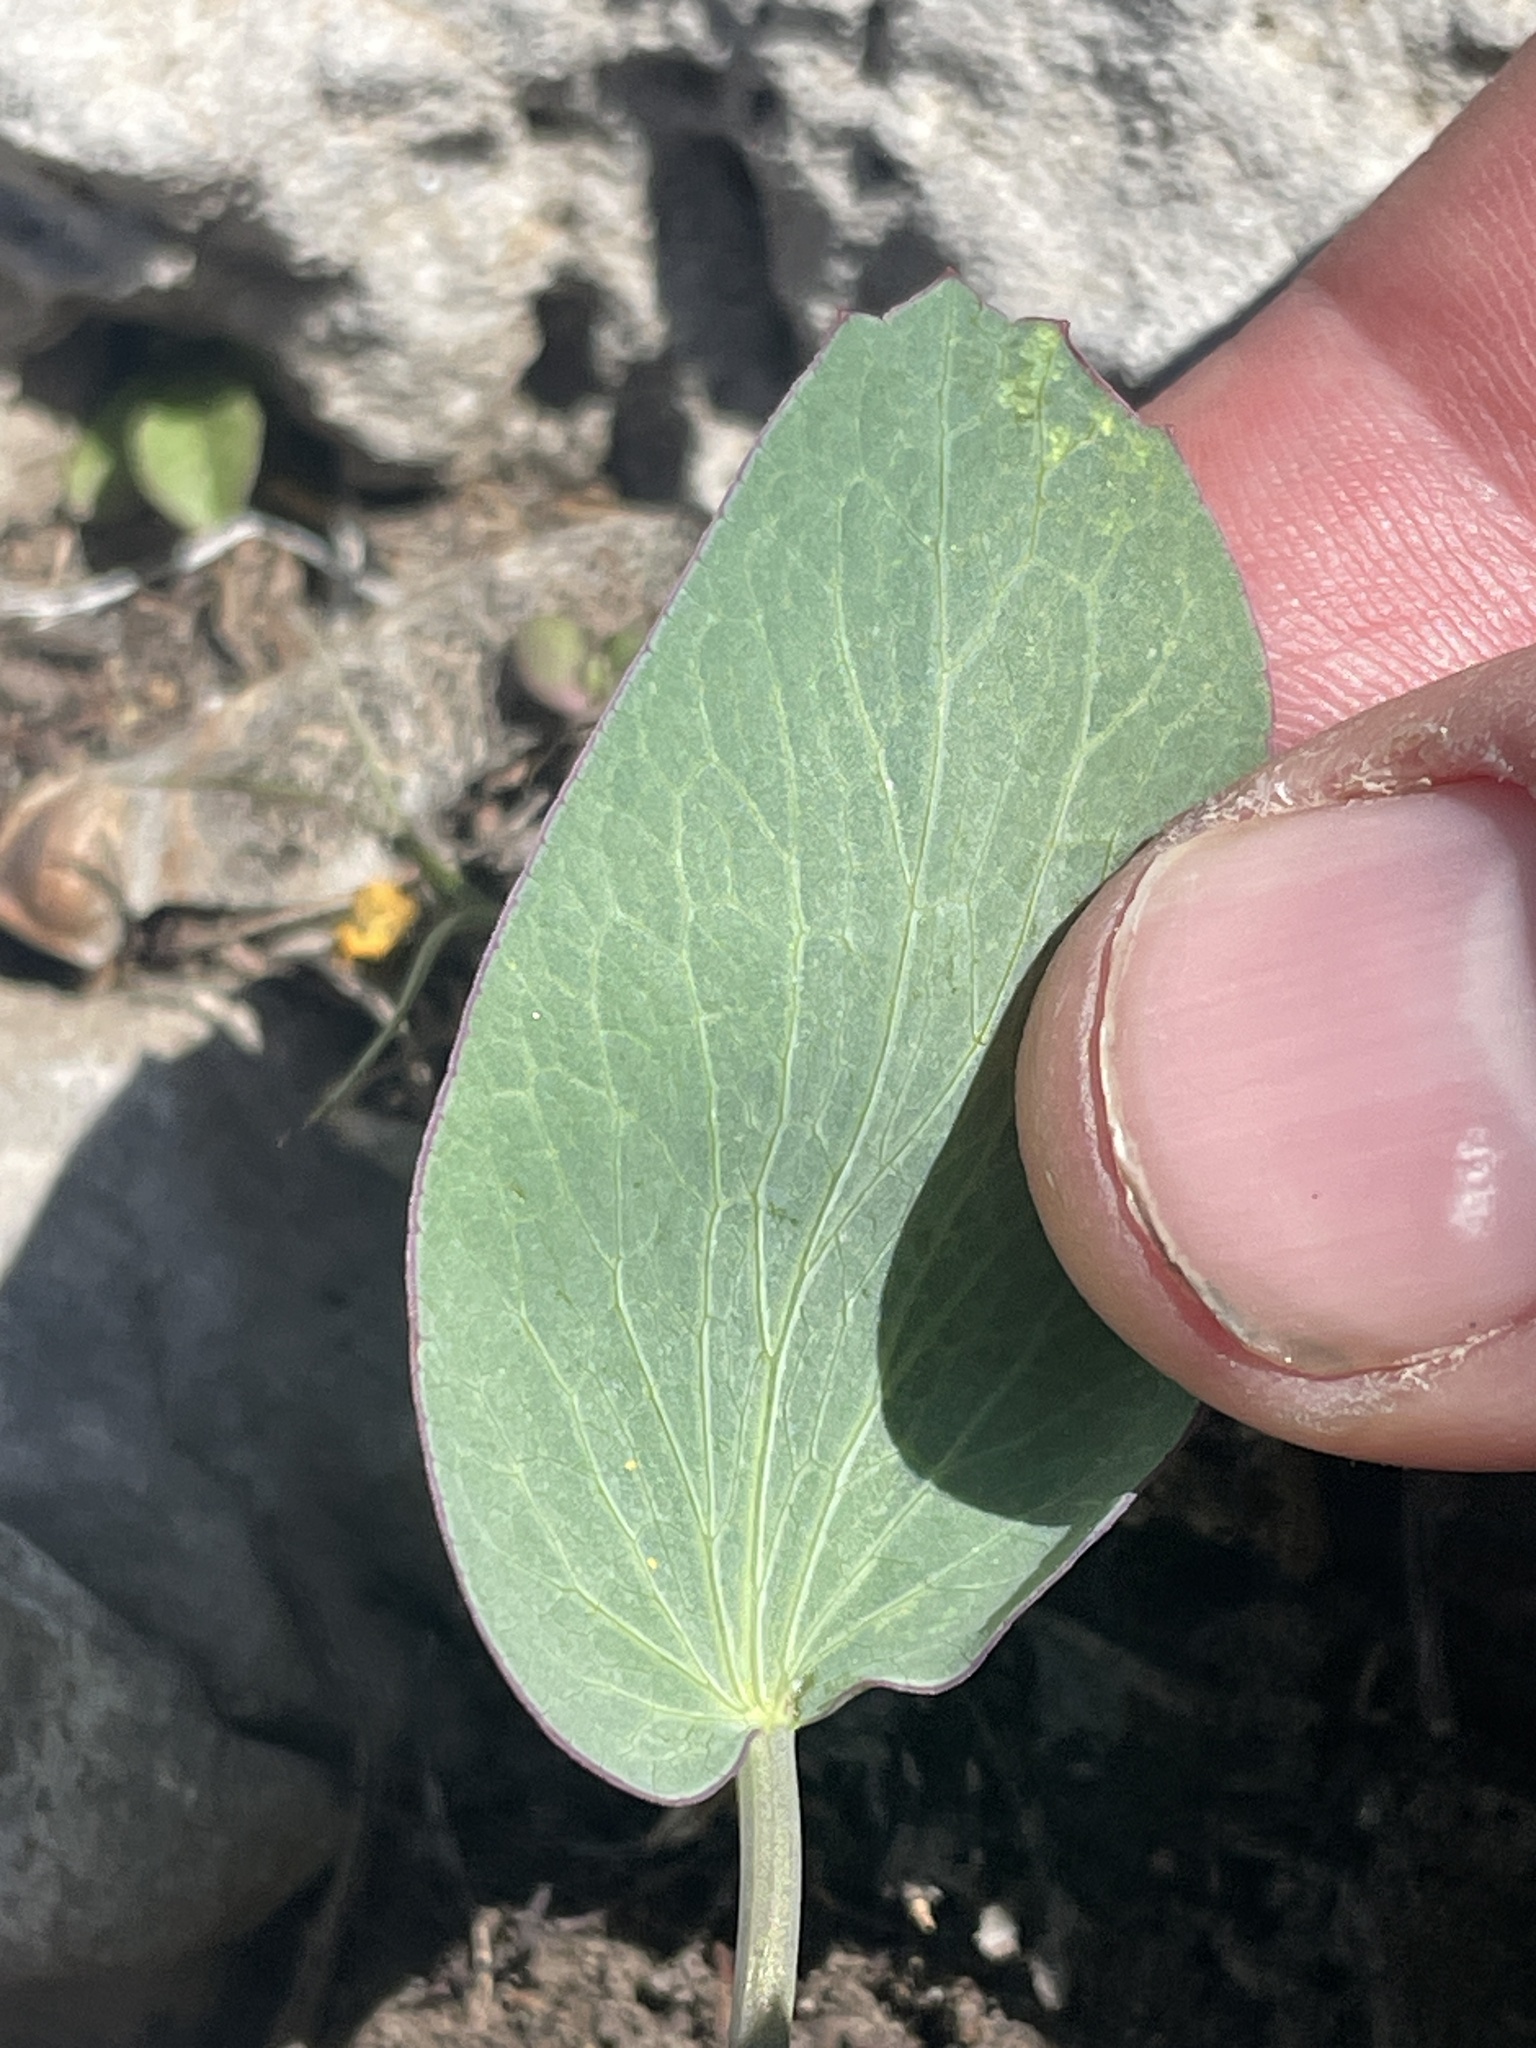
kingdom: Plantae
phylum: Tracheophyta
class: Magnoliopsida
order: Apiales
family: Apiaceae
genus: Lomatium
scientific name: Lomatium nudicaule
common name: Pestle lomatium
